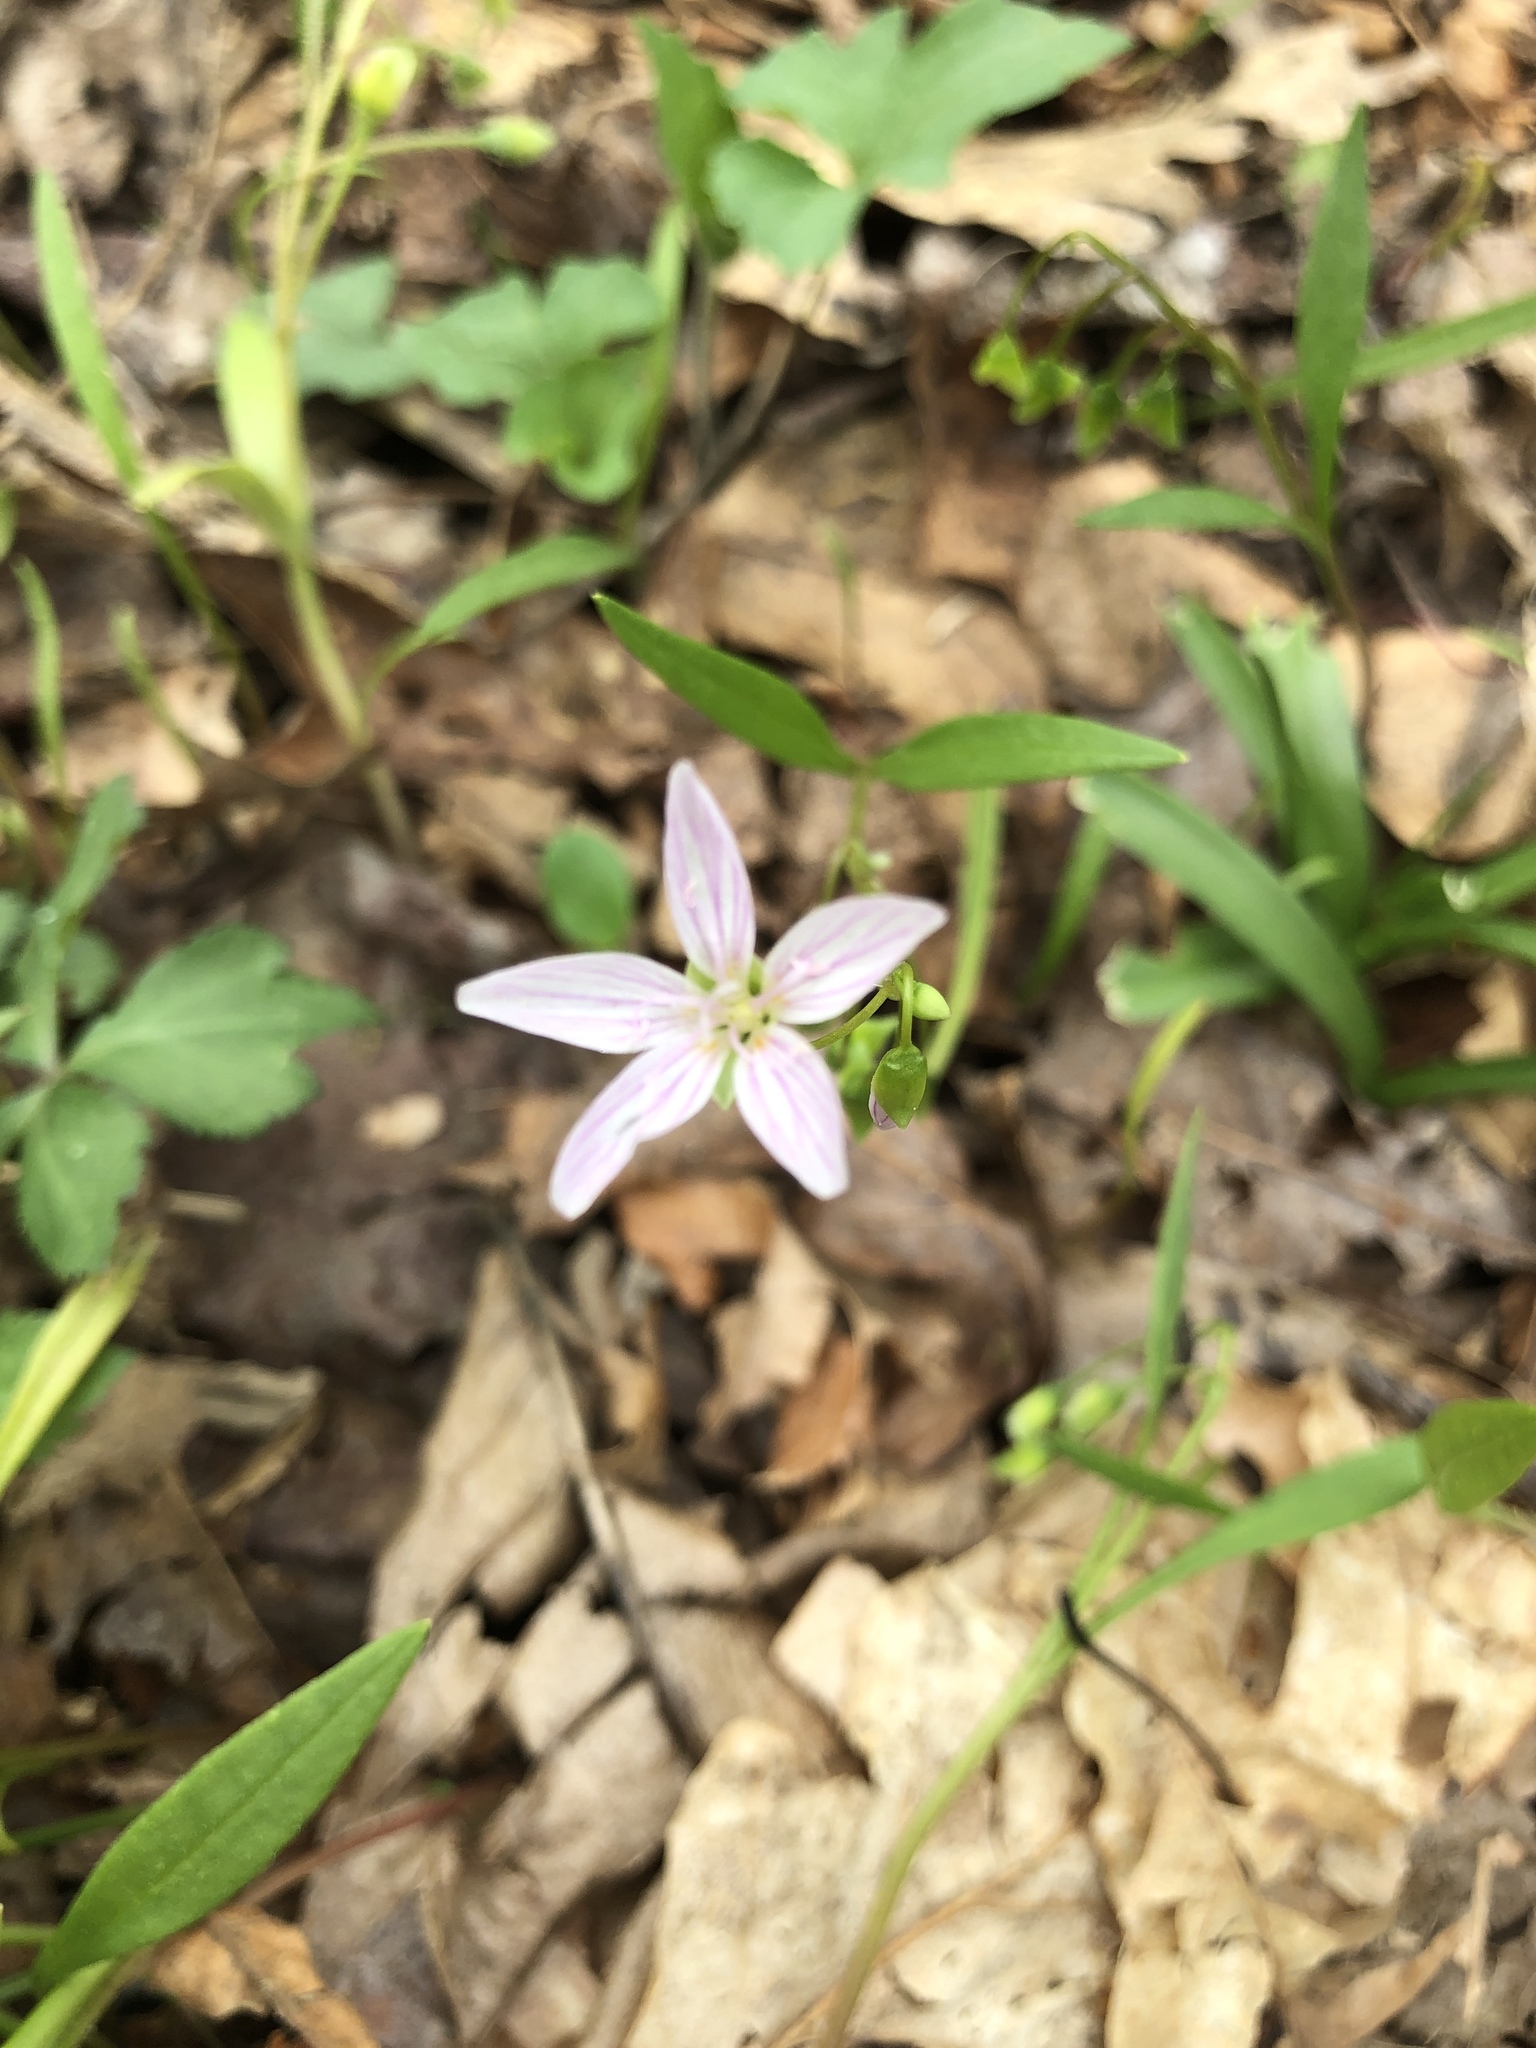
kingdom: Plantae
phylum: Tracheophyta
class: Magnoliopsida
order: Caryophyllales
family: Montiaceae
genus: Claytonia
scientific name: Claytonia virginica
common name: Virginia springbeauty
